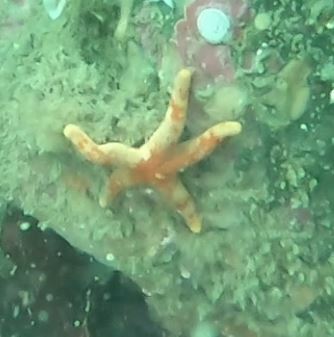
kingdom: Animalia
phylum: Echinodermata
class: Asteroidea
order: Spinulosida
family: Echinasteridae
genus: Henricia
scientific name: Henricia pumila
